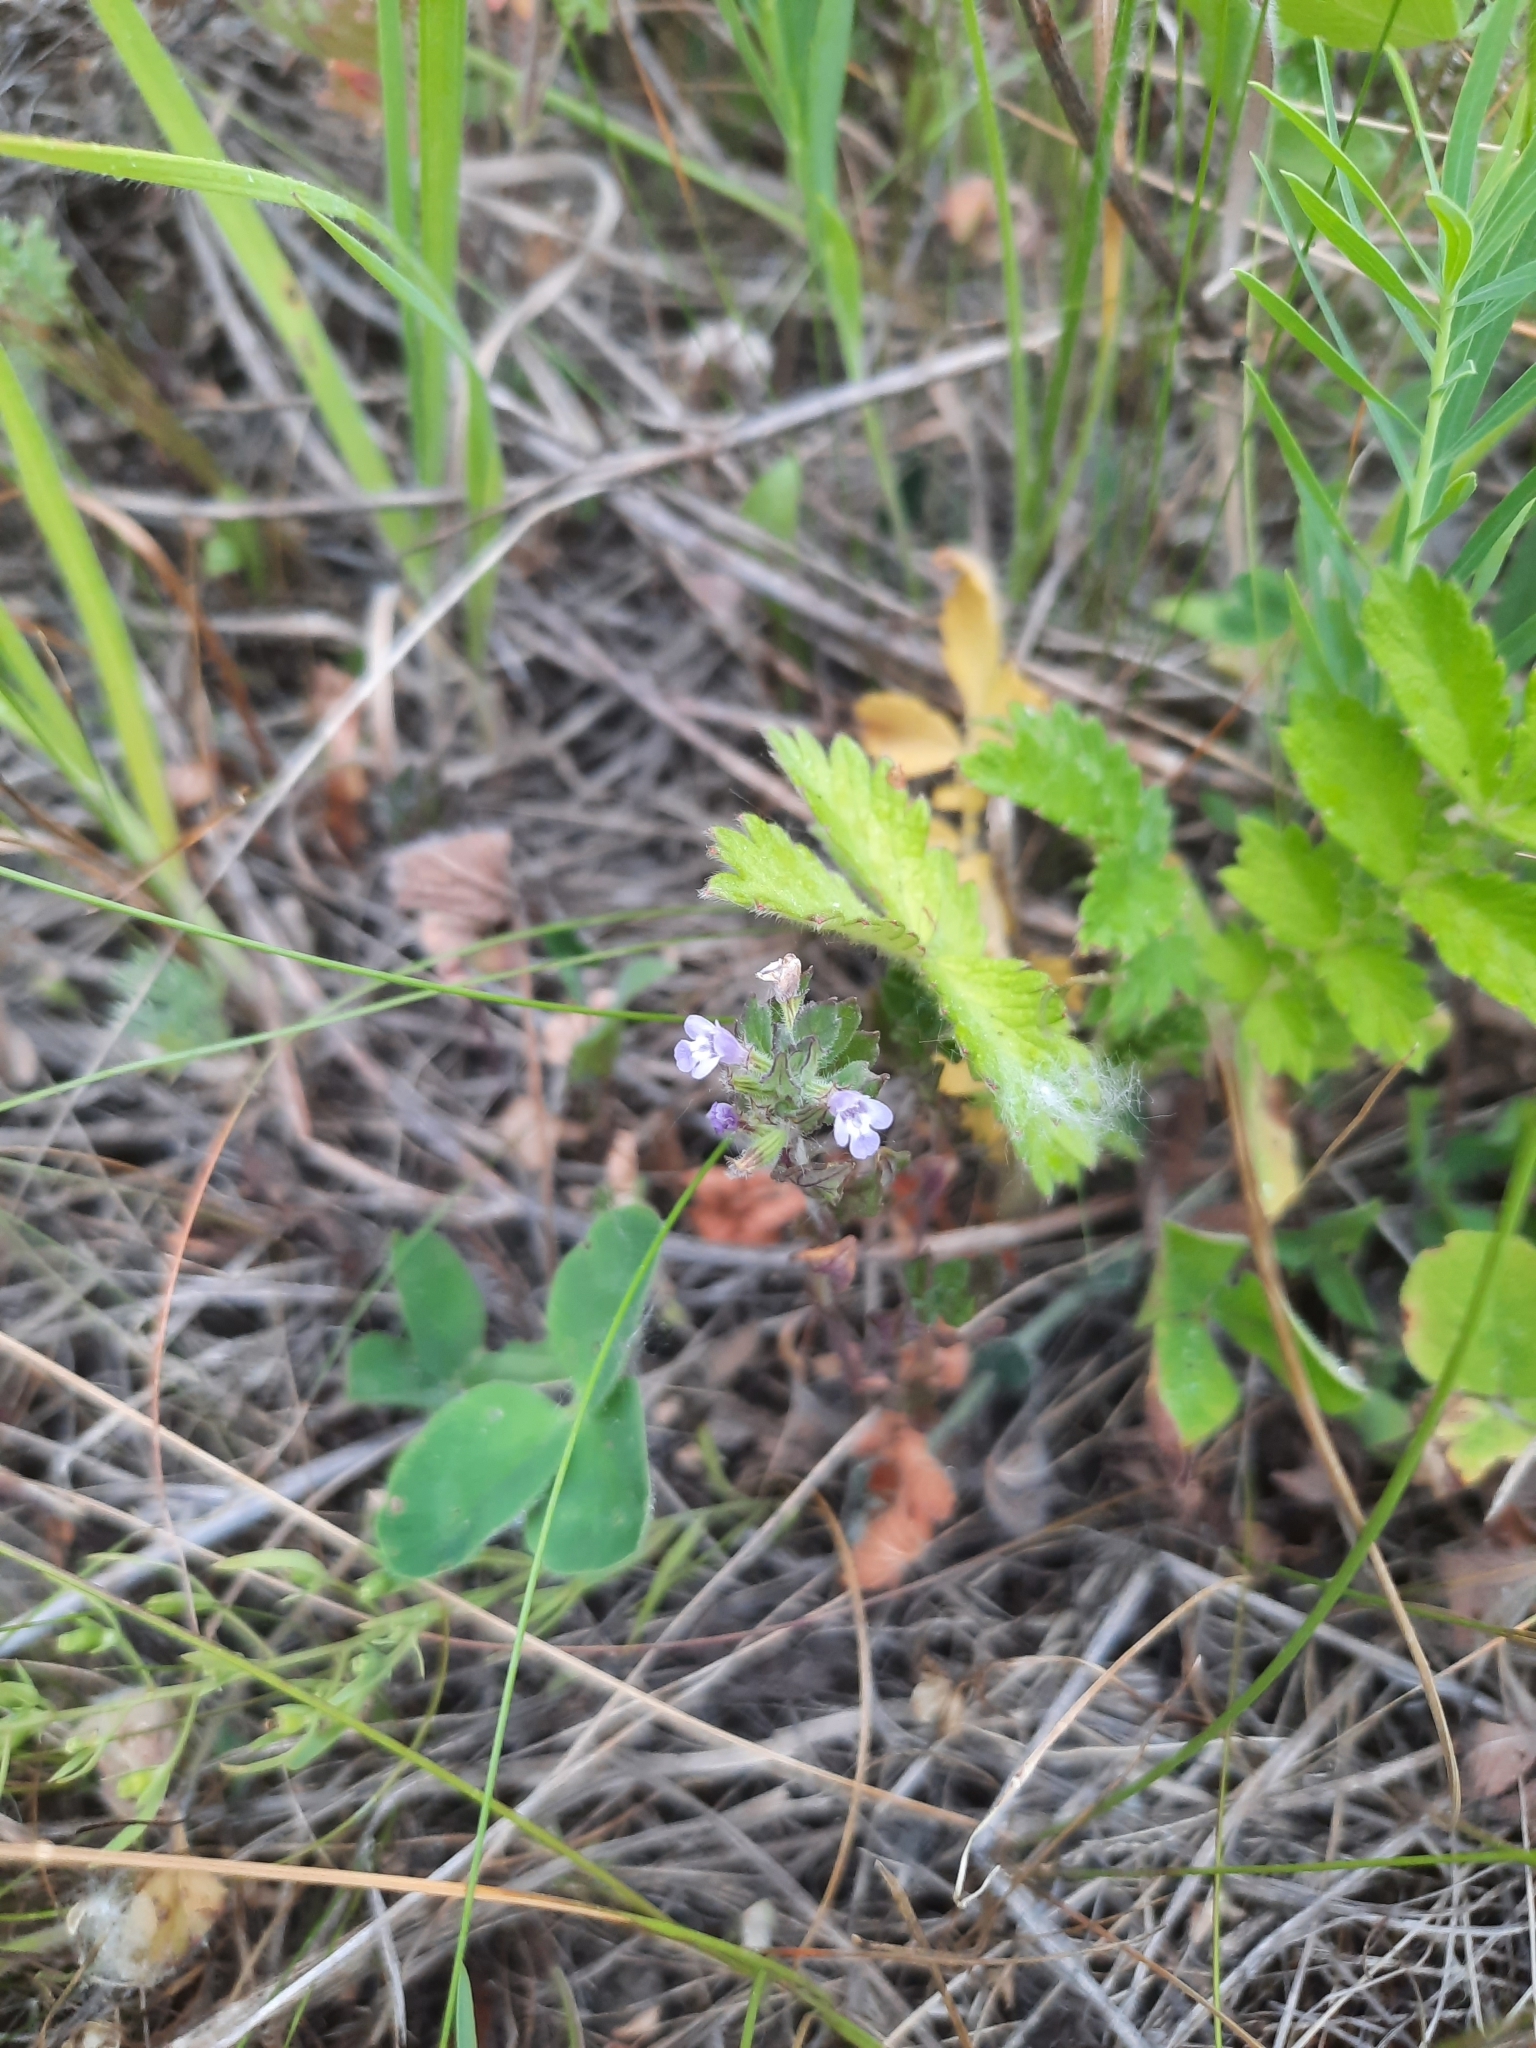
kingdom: Plantae
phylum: Tracheophyta
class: Magnoliopsida
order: Lamiales
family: Lamiaceae
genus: Clinopodium
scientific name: Clinopodium acinos
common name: Basil thyme
